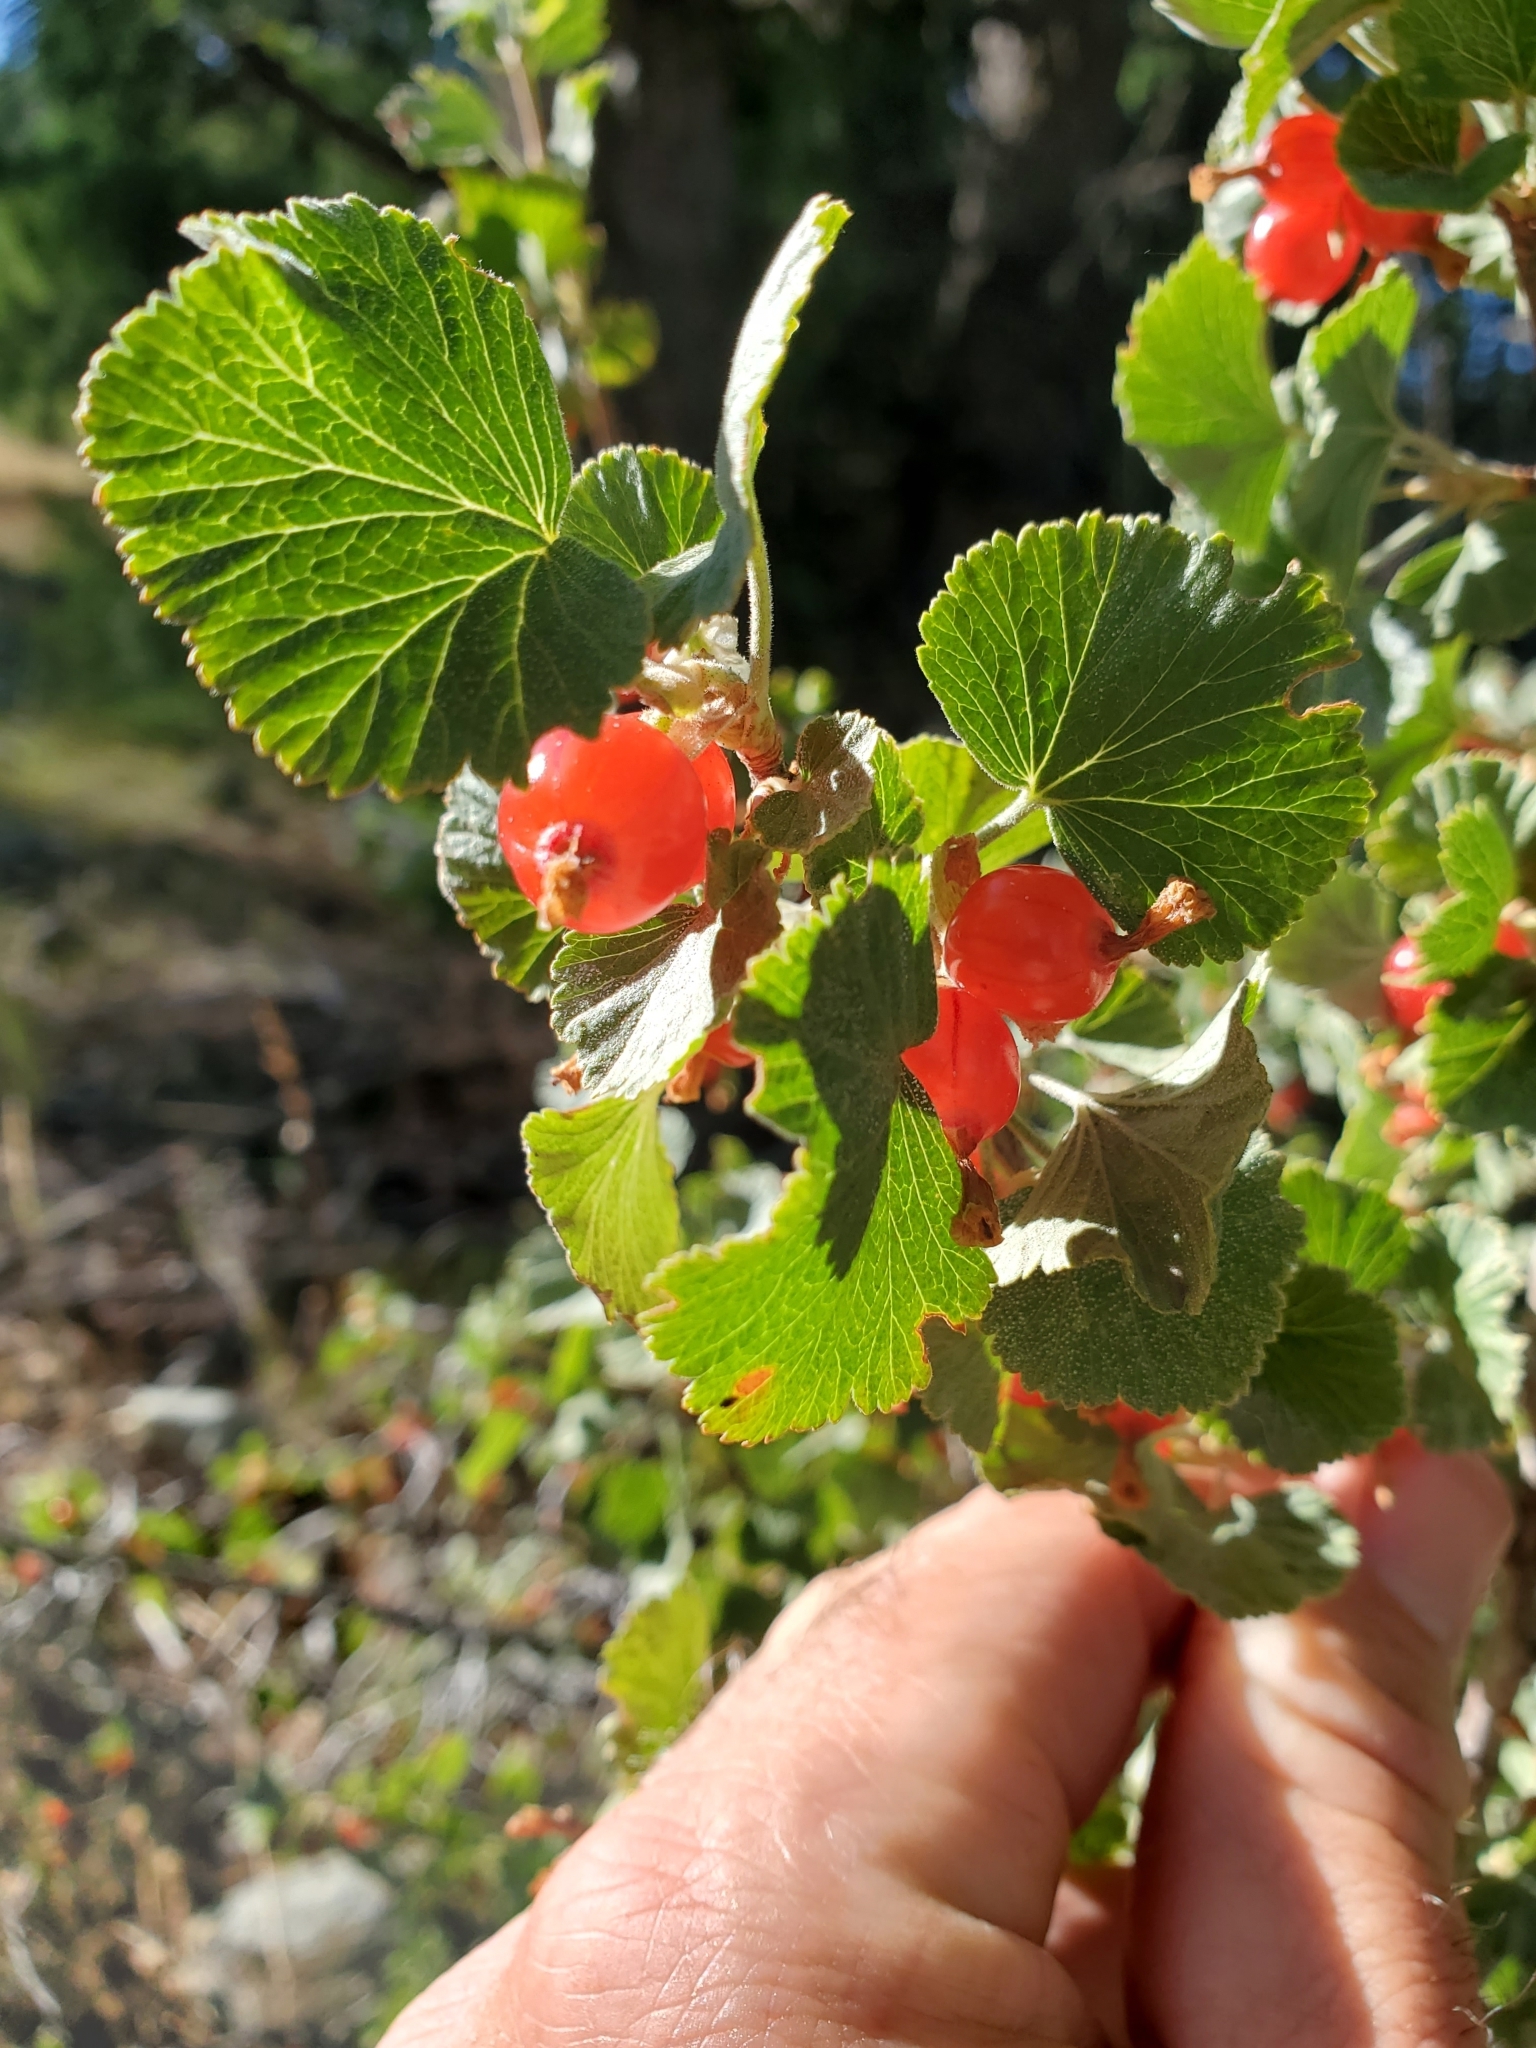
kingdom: Plantae
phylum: Tracheophyta
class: Magnoliopsida
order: Saxifragales
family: Grossulariaceae
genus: Ribes
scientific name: Ribes cereum
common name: Wax currant
